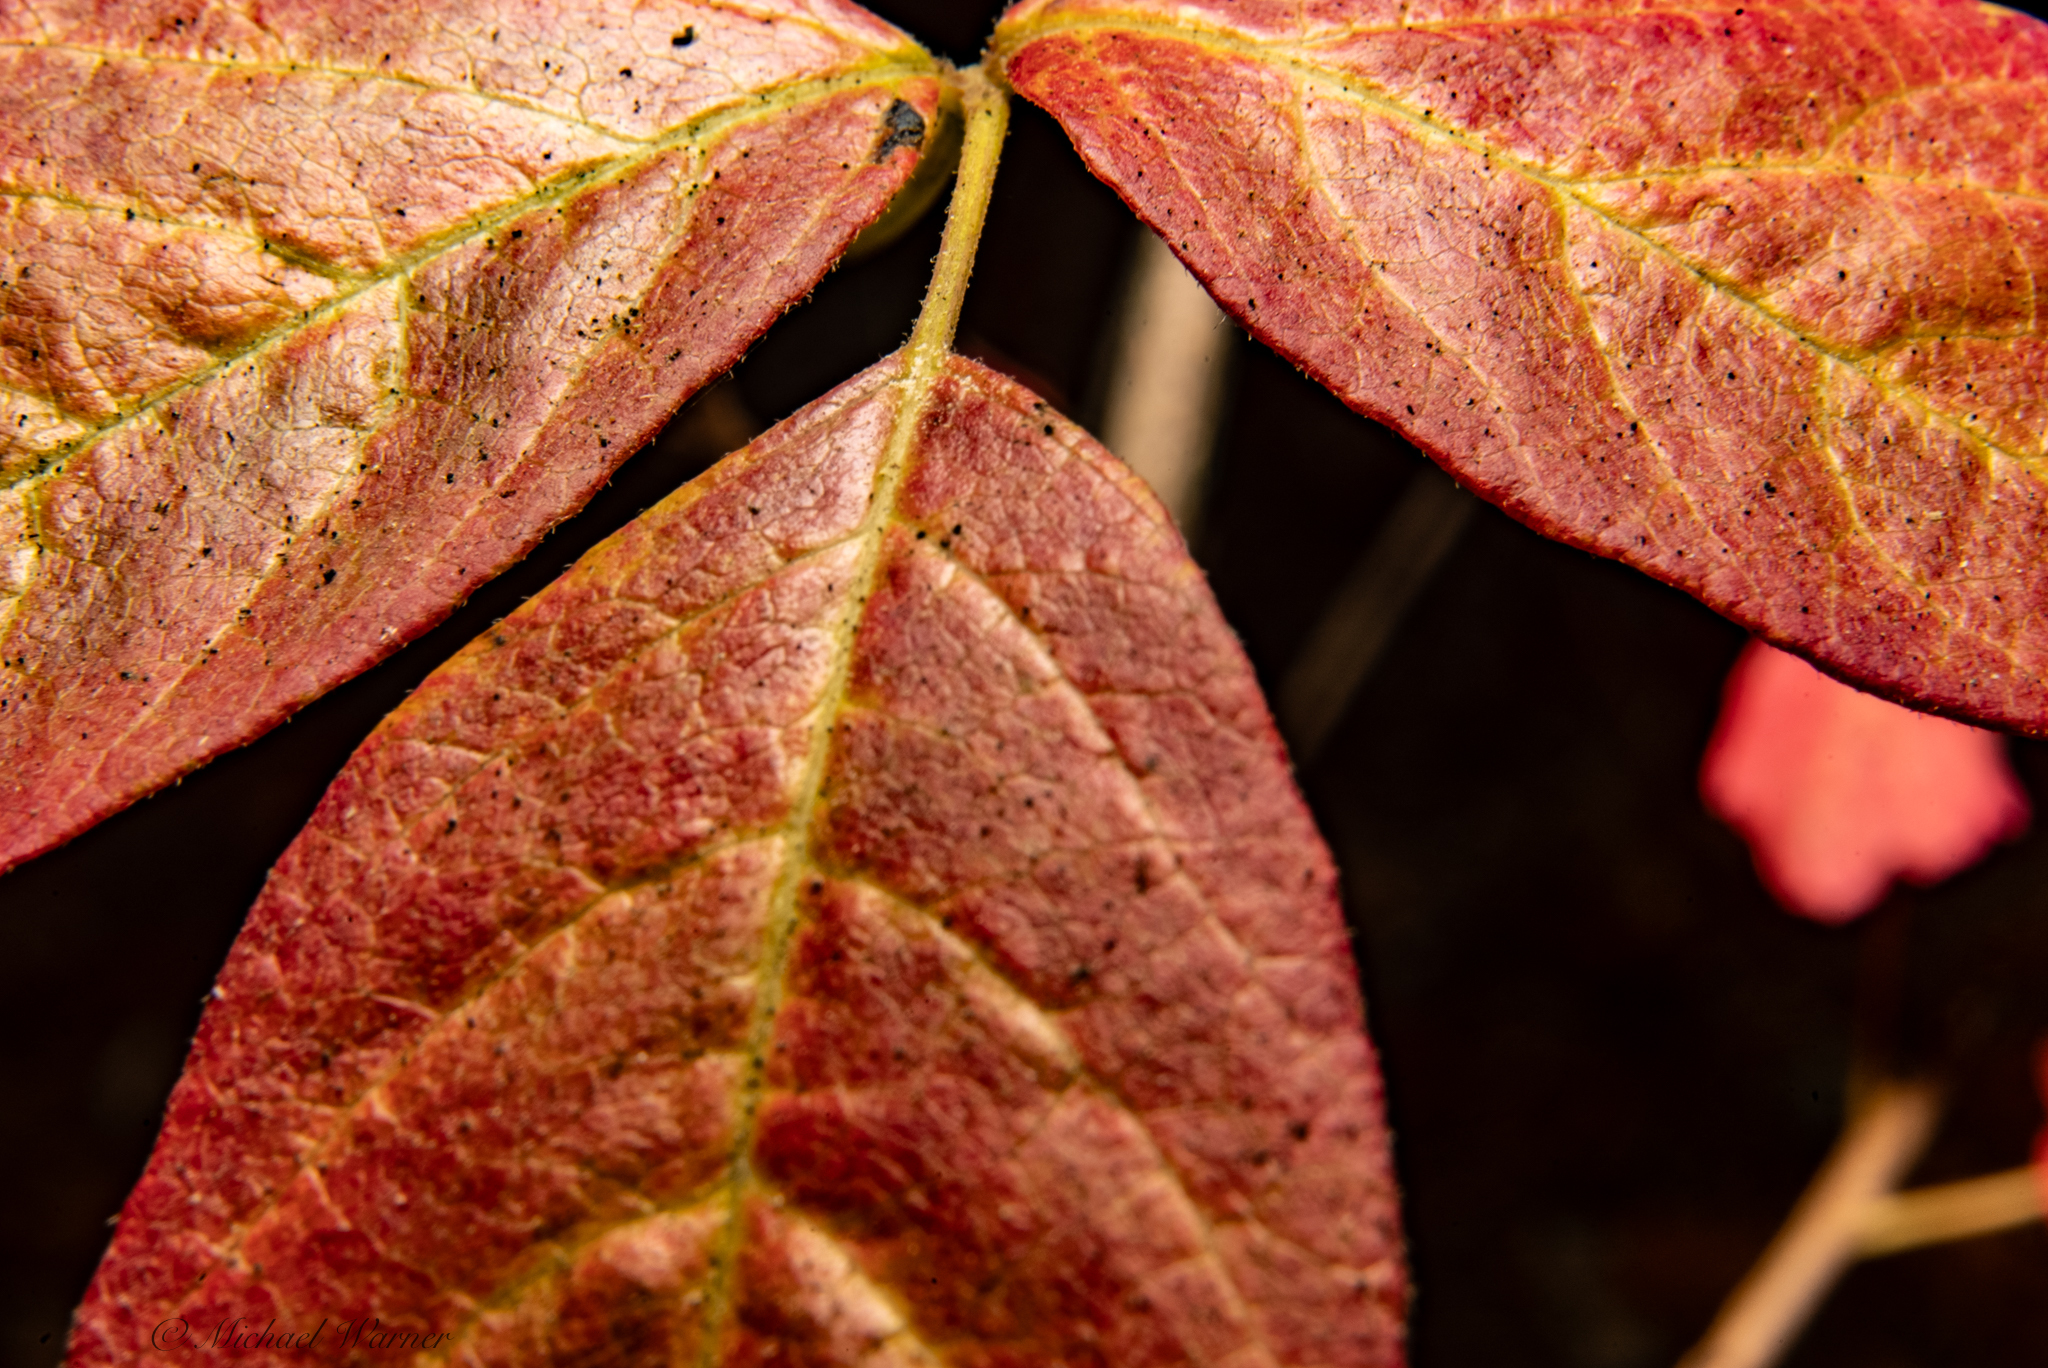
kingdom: Plantae
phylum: Tracheophyta
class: Magnoliopsida
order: Sapindales
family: Anacardiaceae
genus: Toxicodendron
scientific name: Toxicodendron diversilobum
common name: Pacific poison-oak
